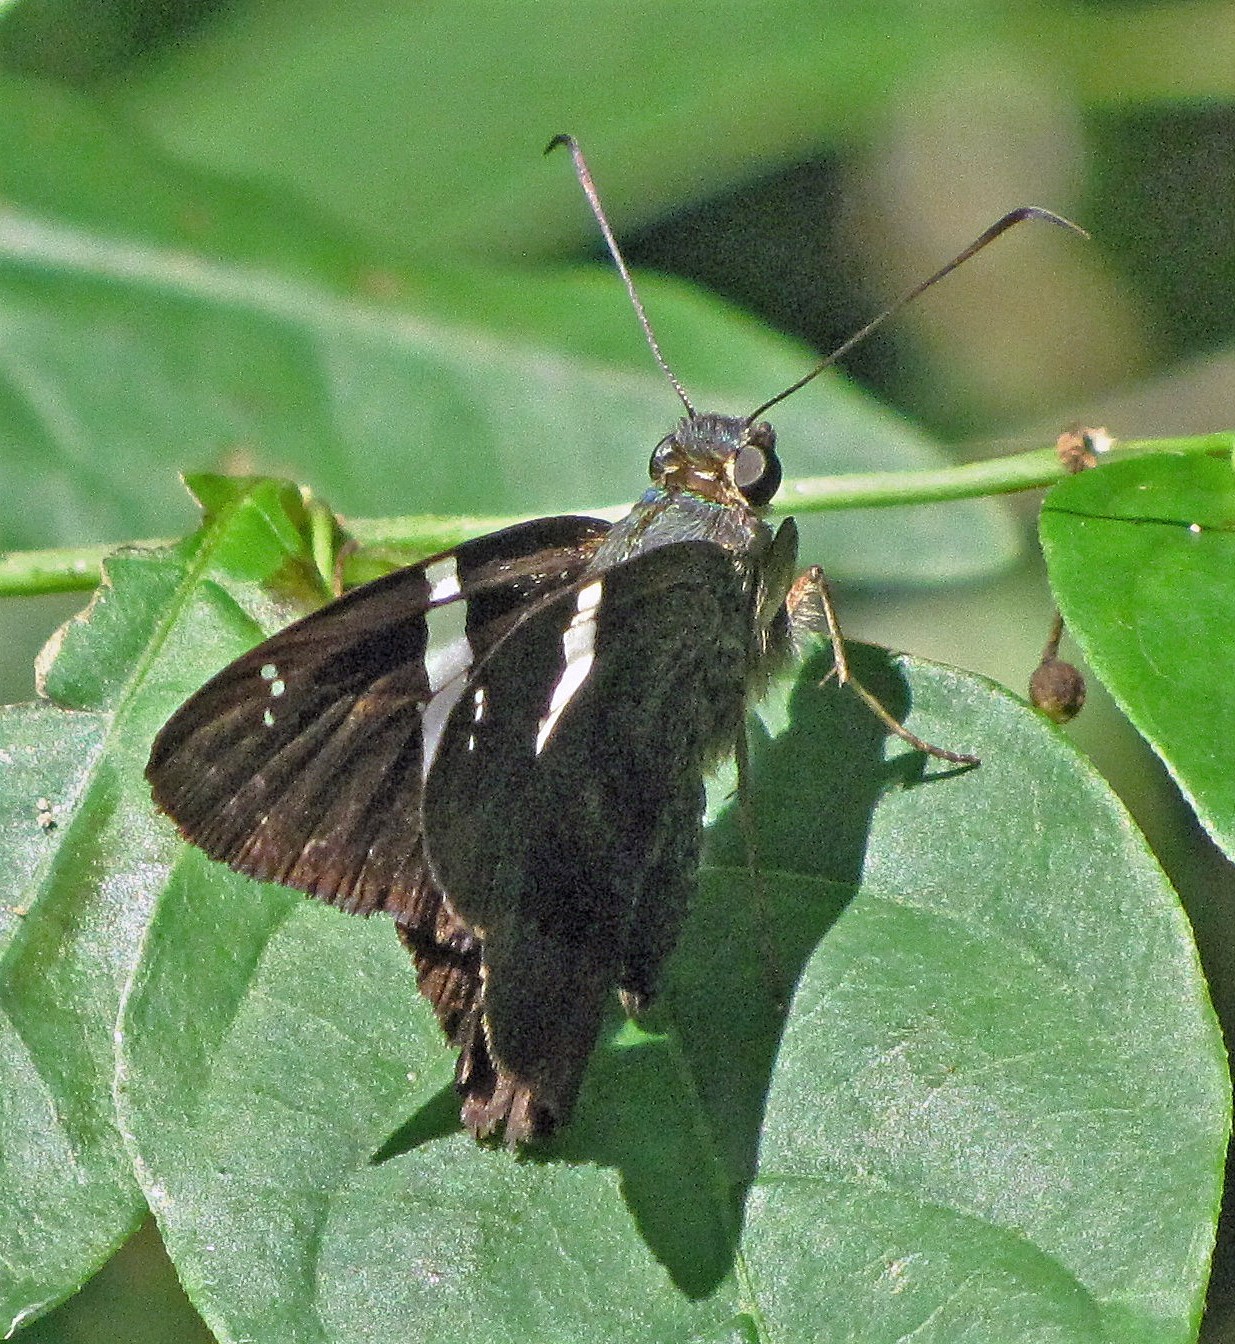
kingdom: Animalia
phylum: Arthropoda
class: Insecta
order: Lepidoptera
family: Hesperiidae
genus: Autochton
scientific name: Autochton neis
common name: Broad-banded skipper
